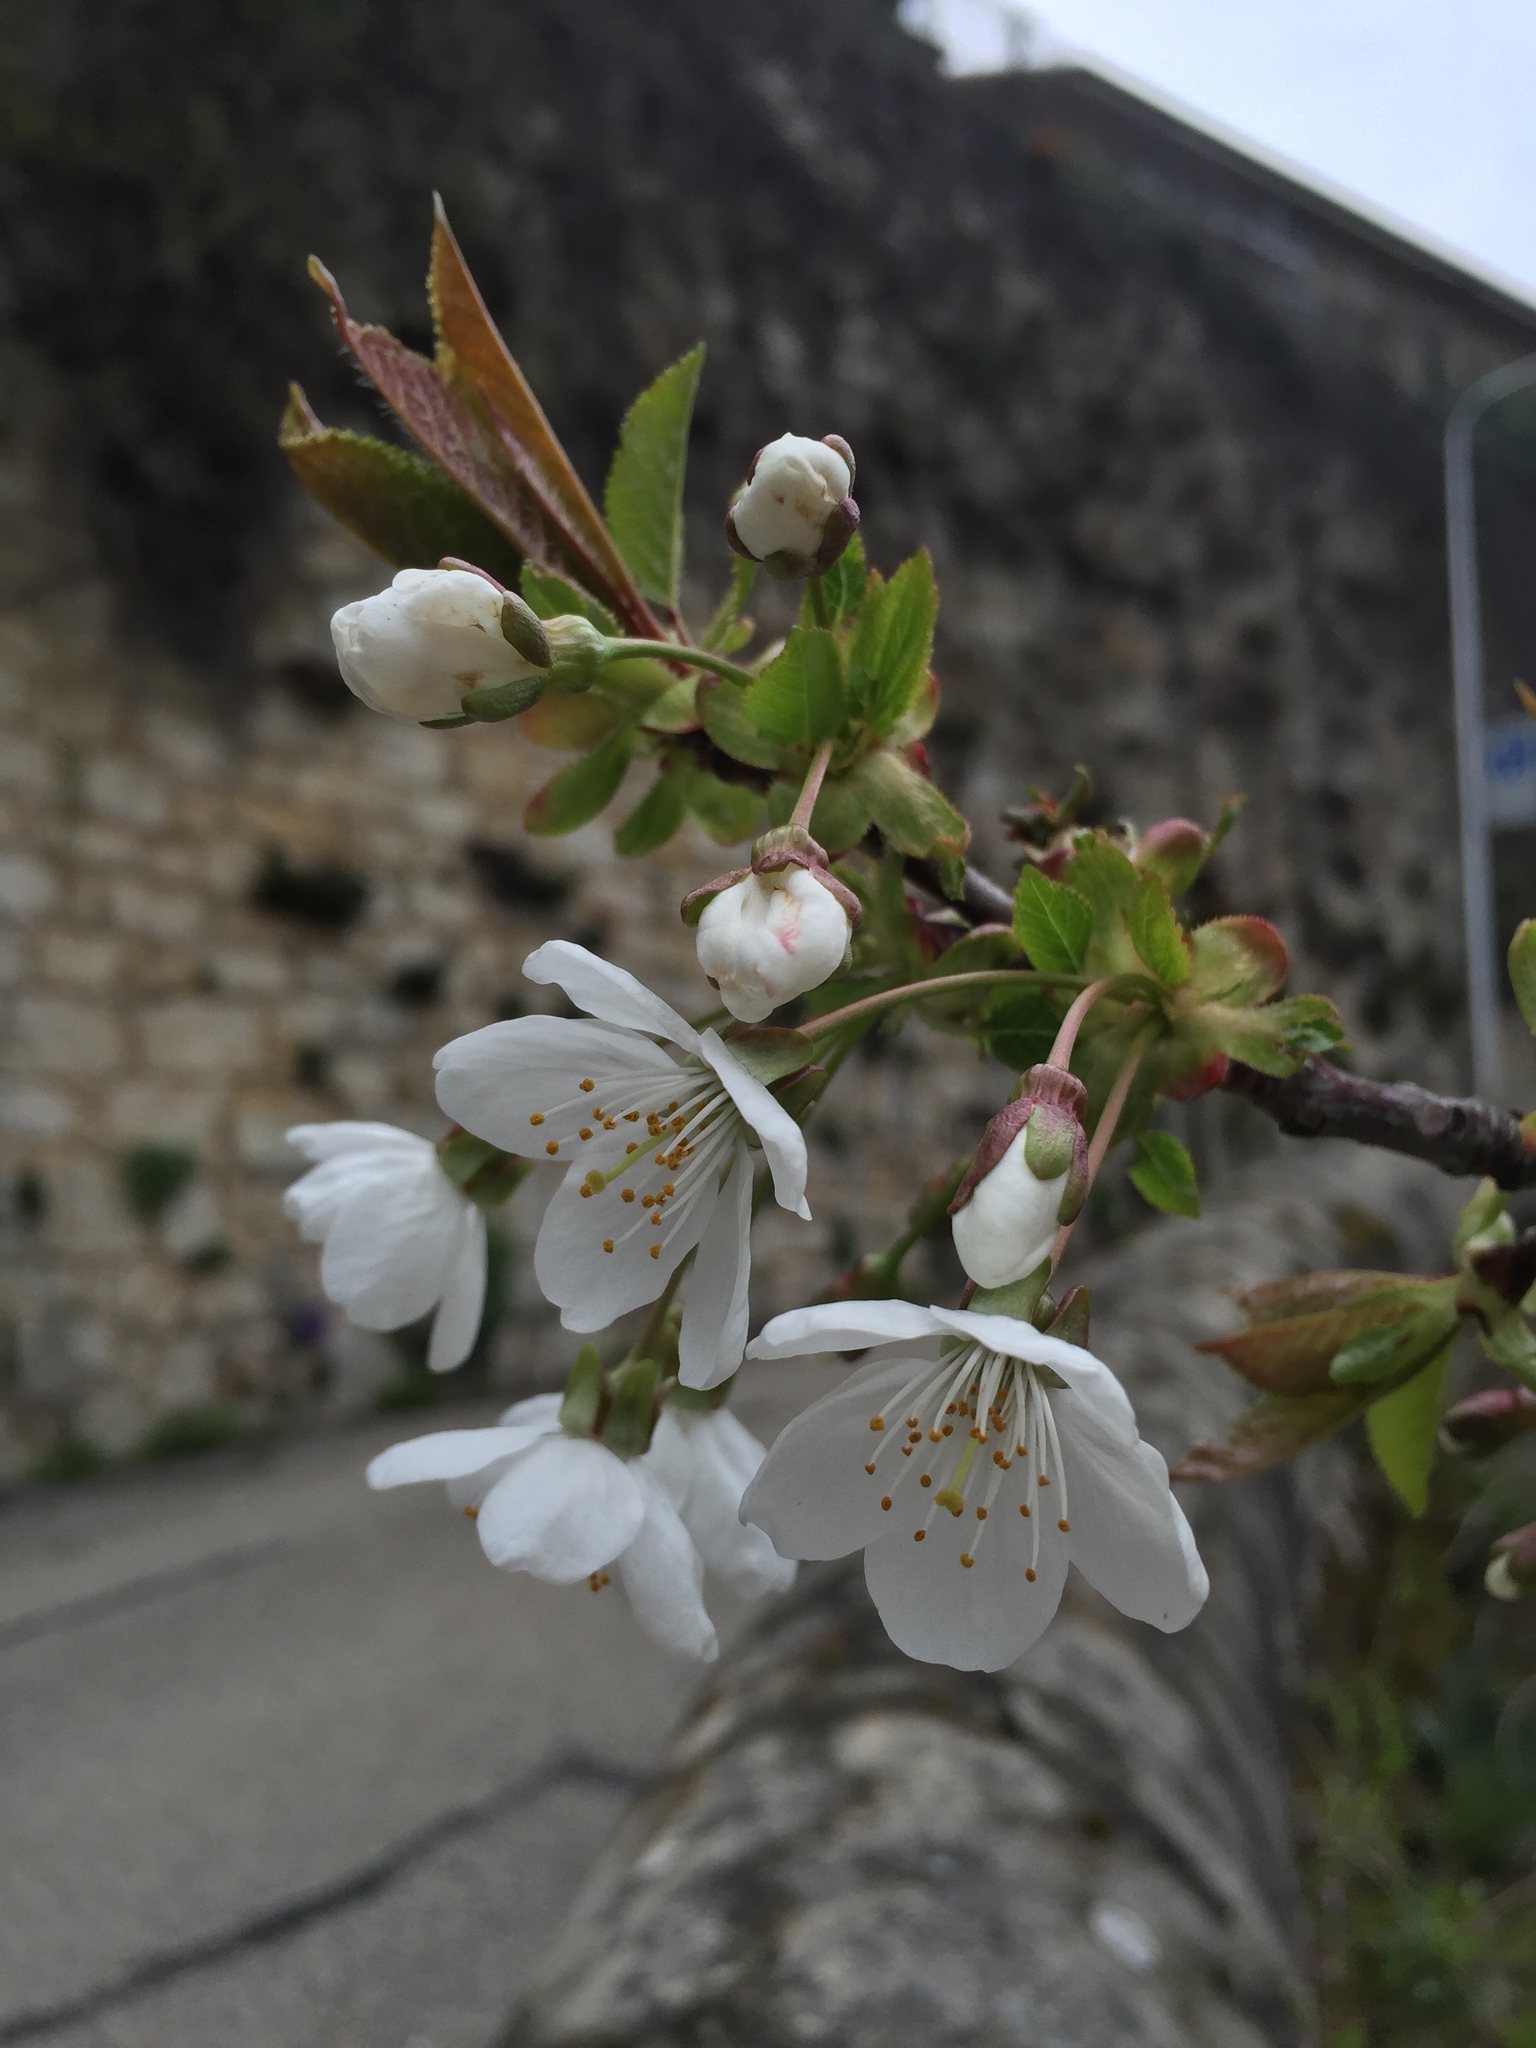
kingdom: Plantae
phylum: Tracheophyta
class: Magnoliopsida
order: Rosales
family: Rosaceae
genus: Prunus
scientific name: Prunus avium
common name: Sweet cherry
